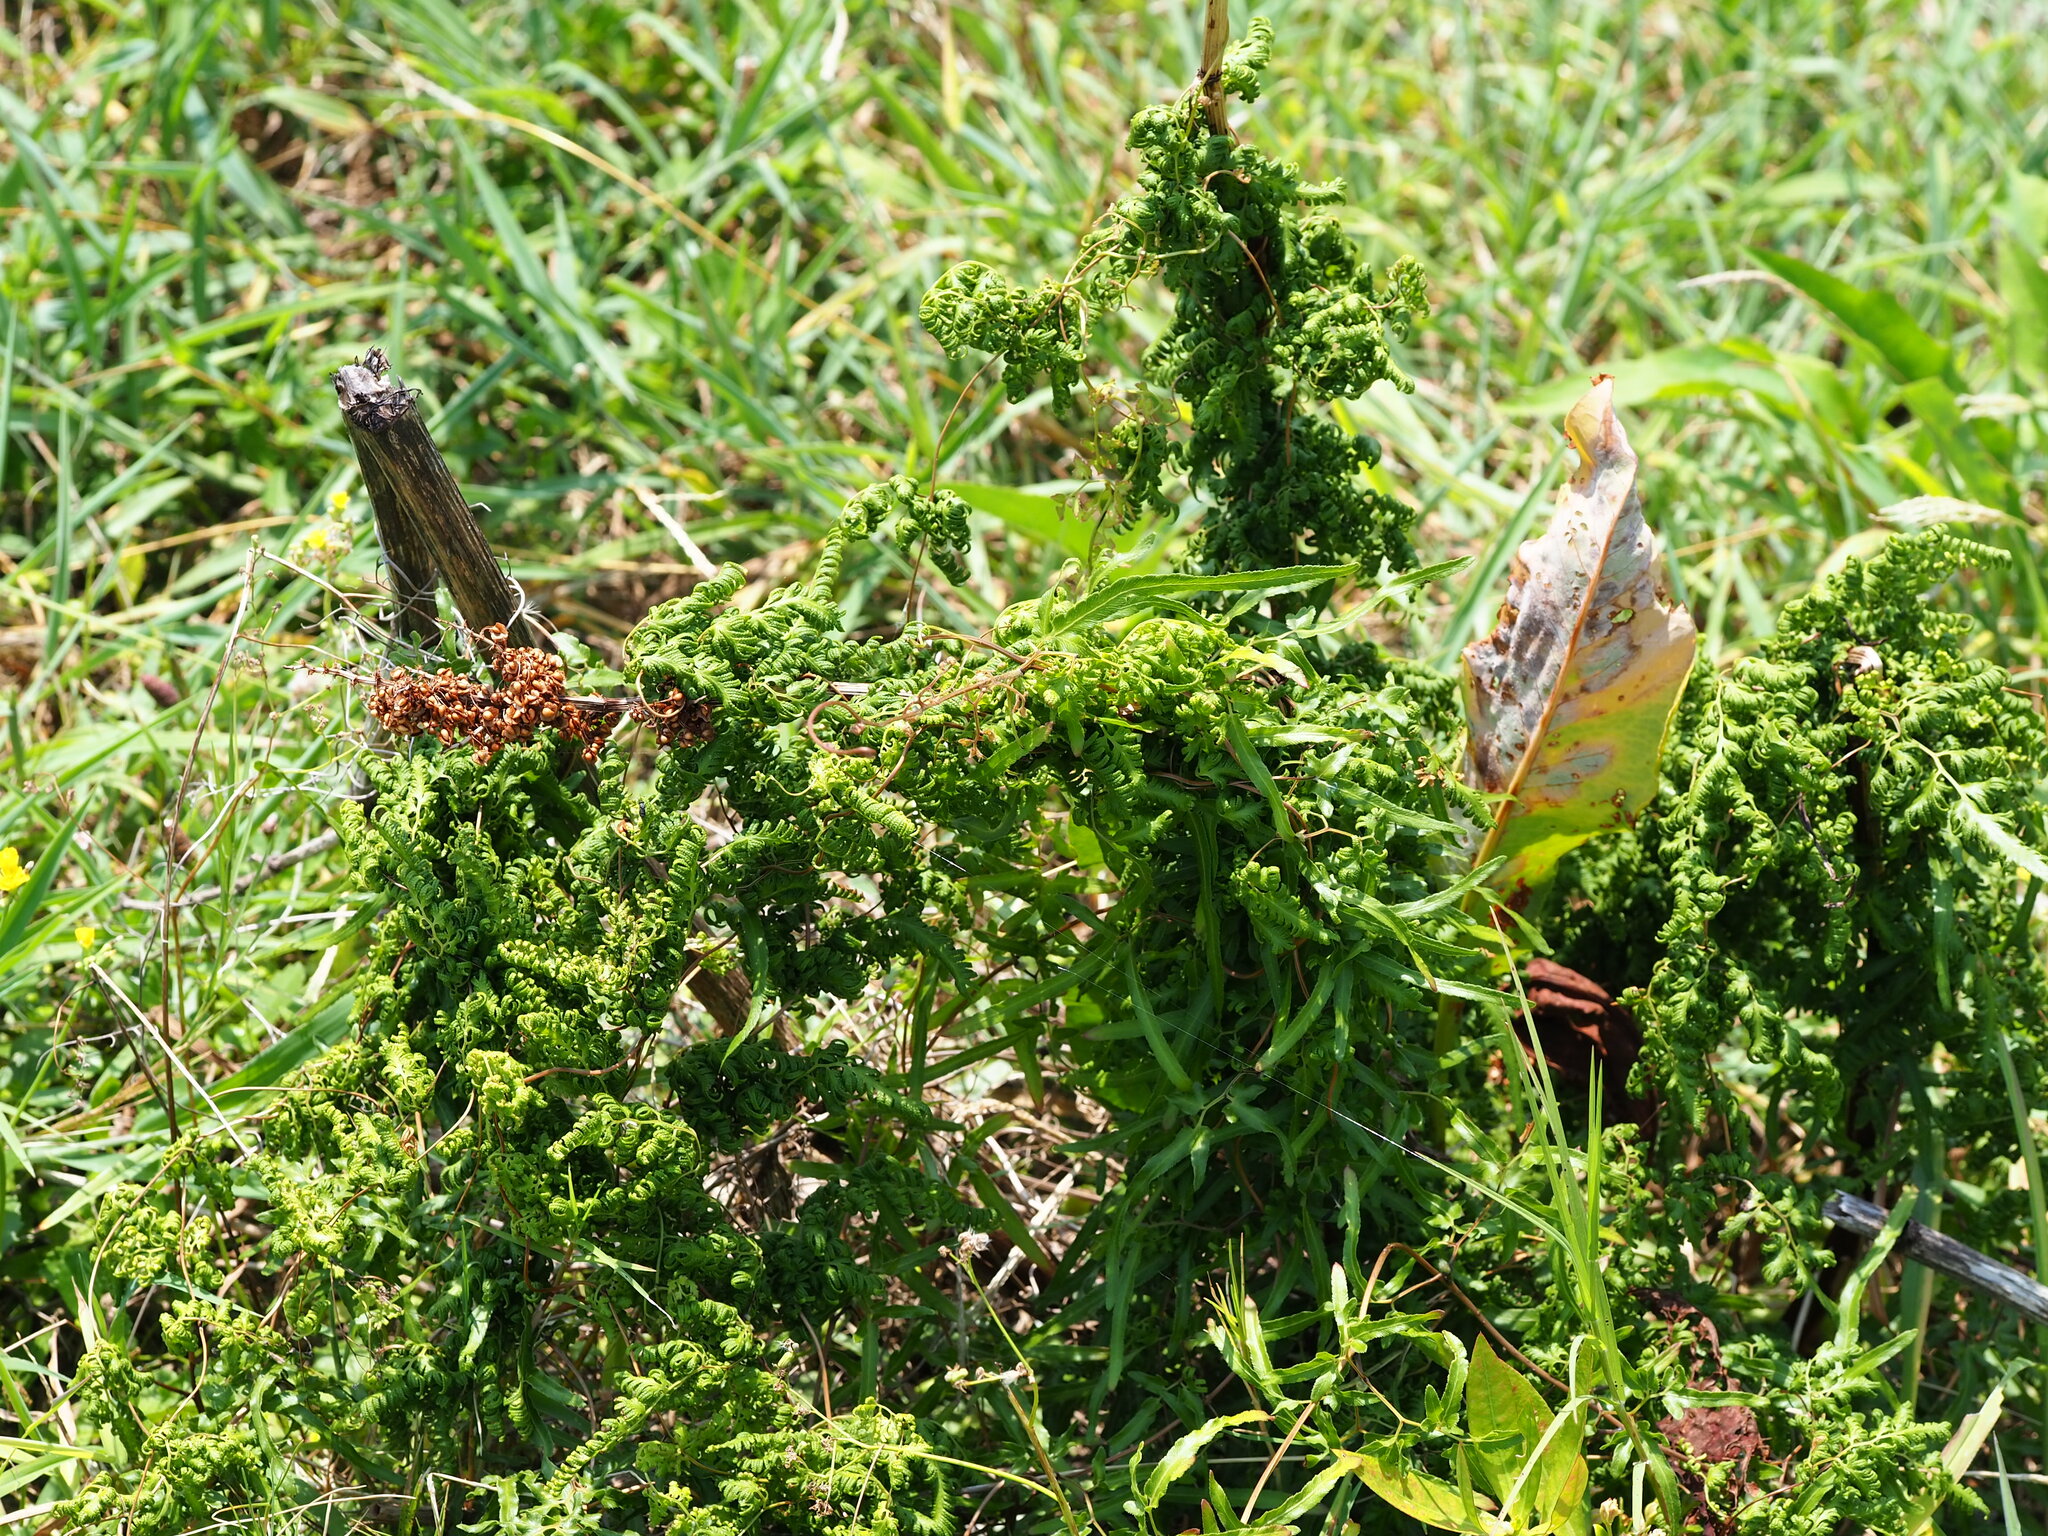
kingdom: Plantae
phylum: Tracheophyta
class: Polypodiopsida
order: Schizaeales
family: Lygodiaceae
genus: Lygodium
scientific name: Lygodium japonicum
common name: Japanese climbing fern
